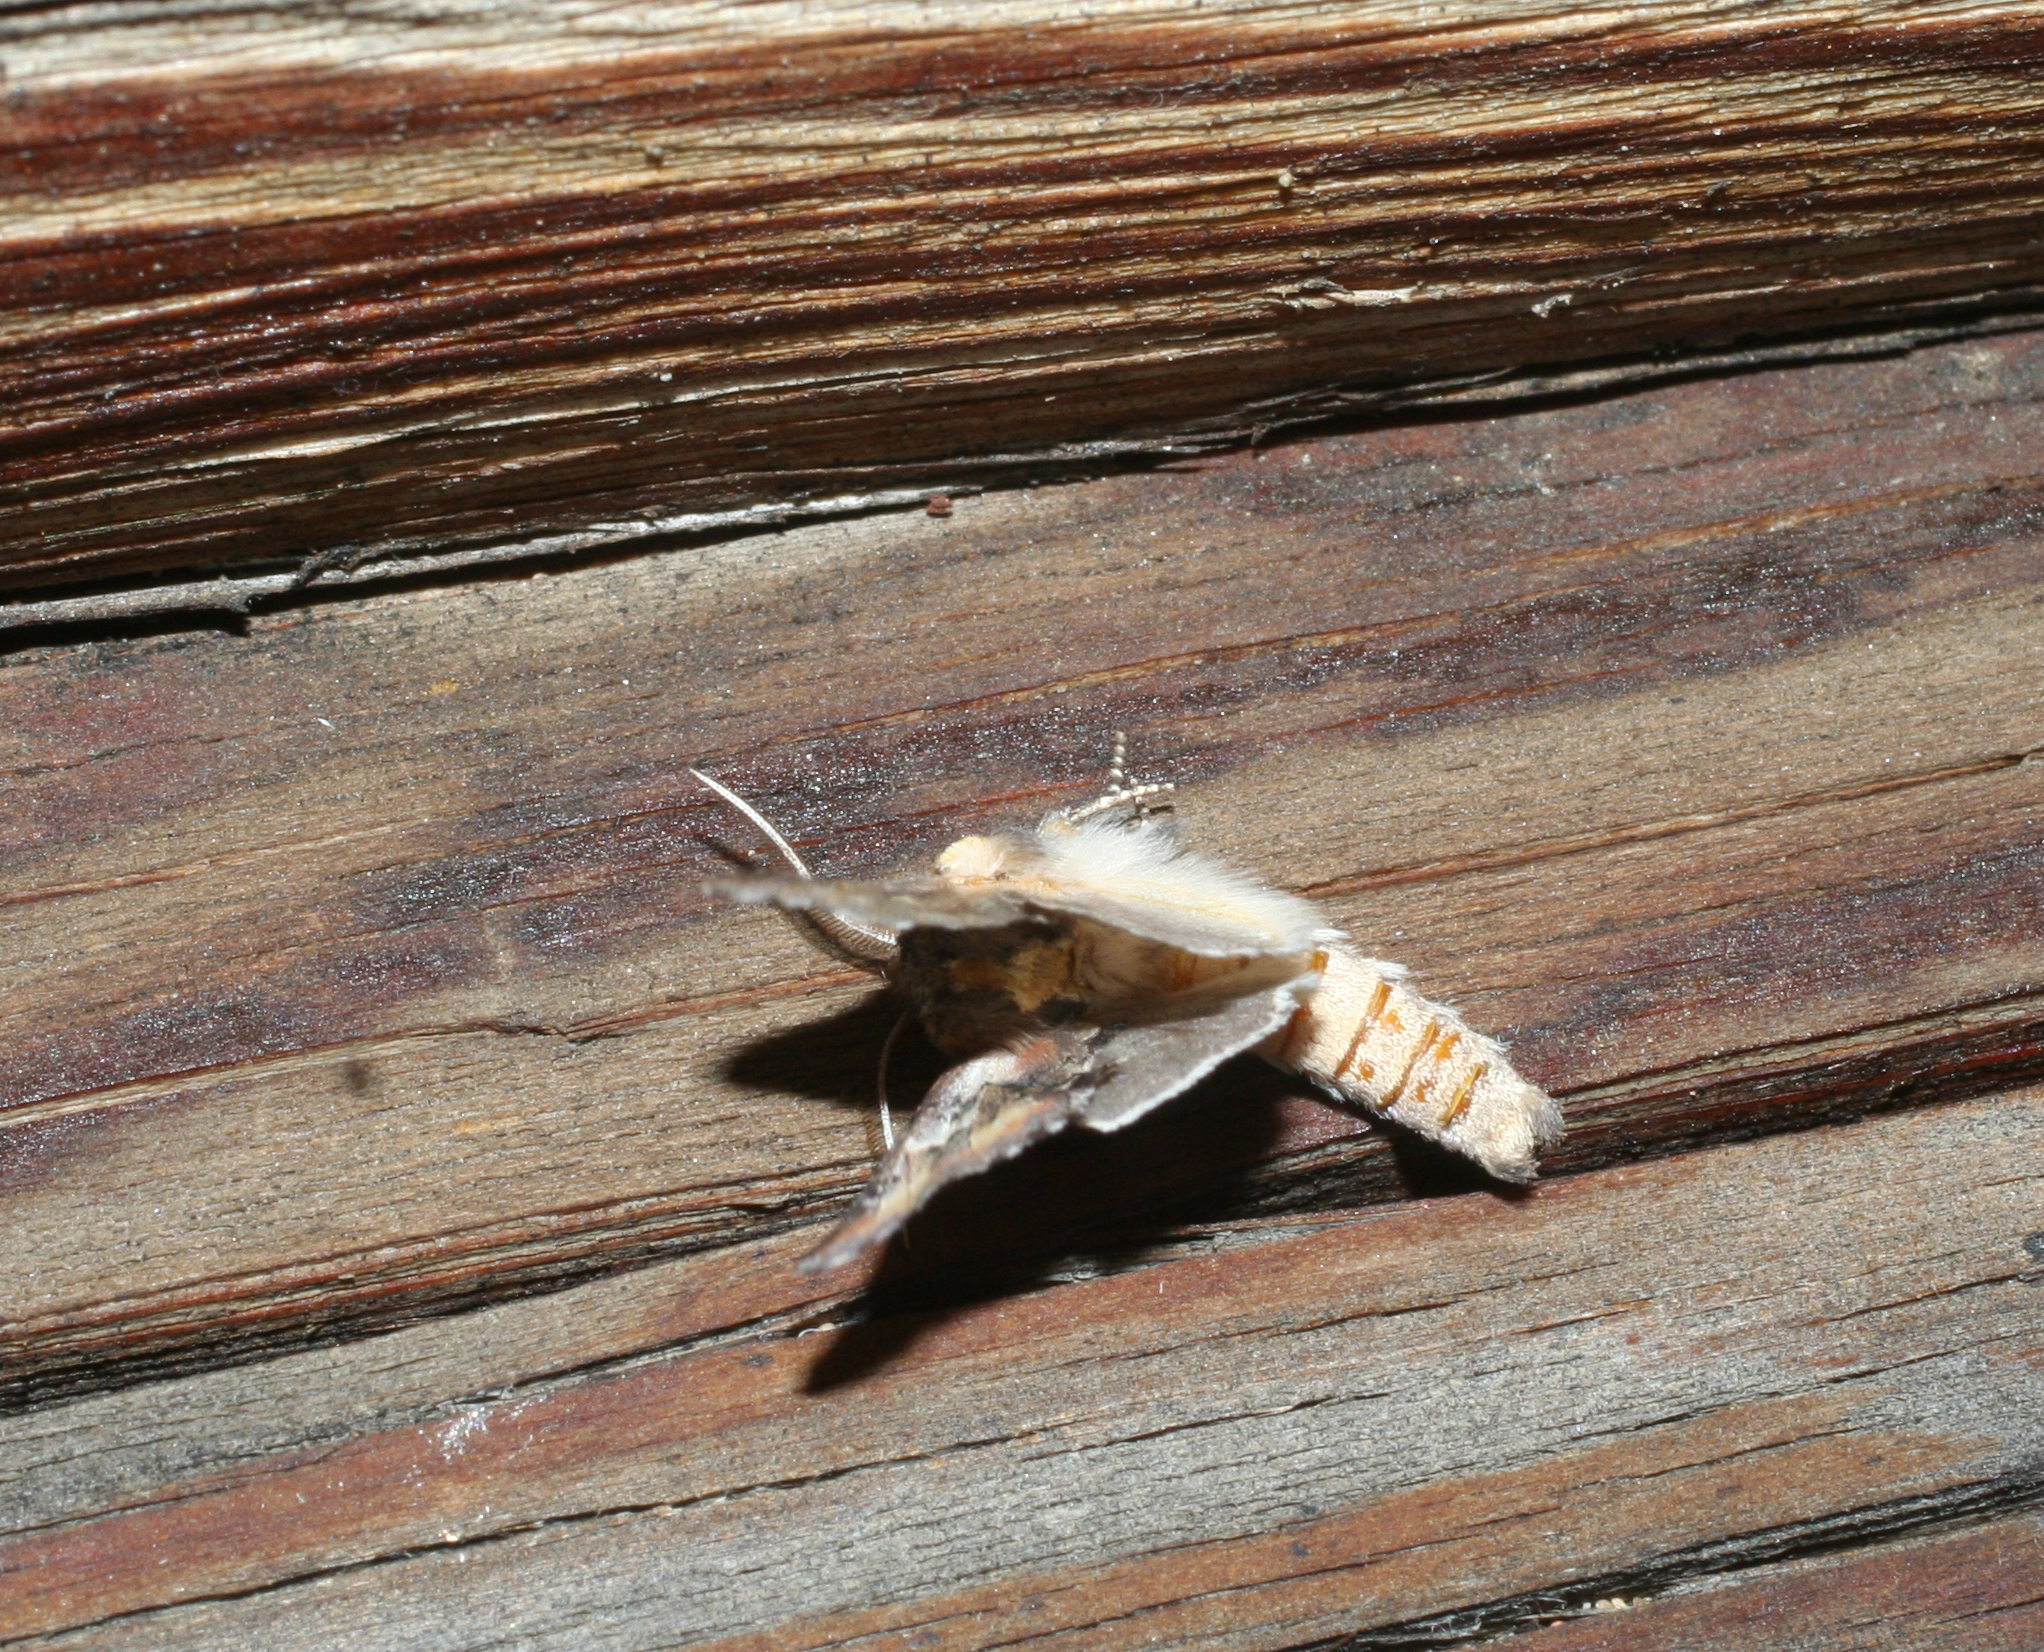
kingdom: Animalia
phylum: Arthropoda
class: Insecta
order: Lepidoptera
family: Notodontidae
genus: Pterotes
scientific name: Pterotes eugenia
